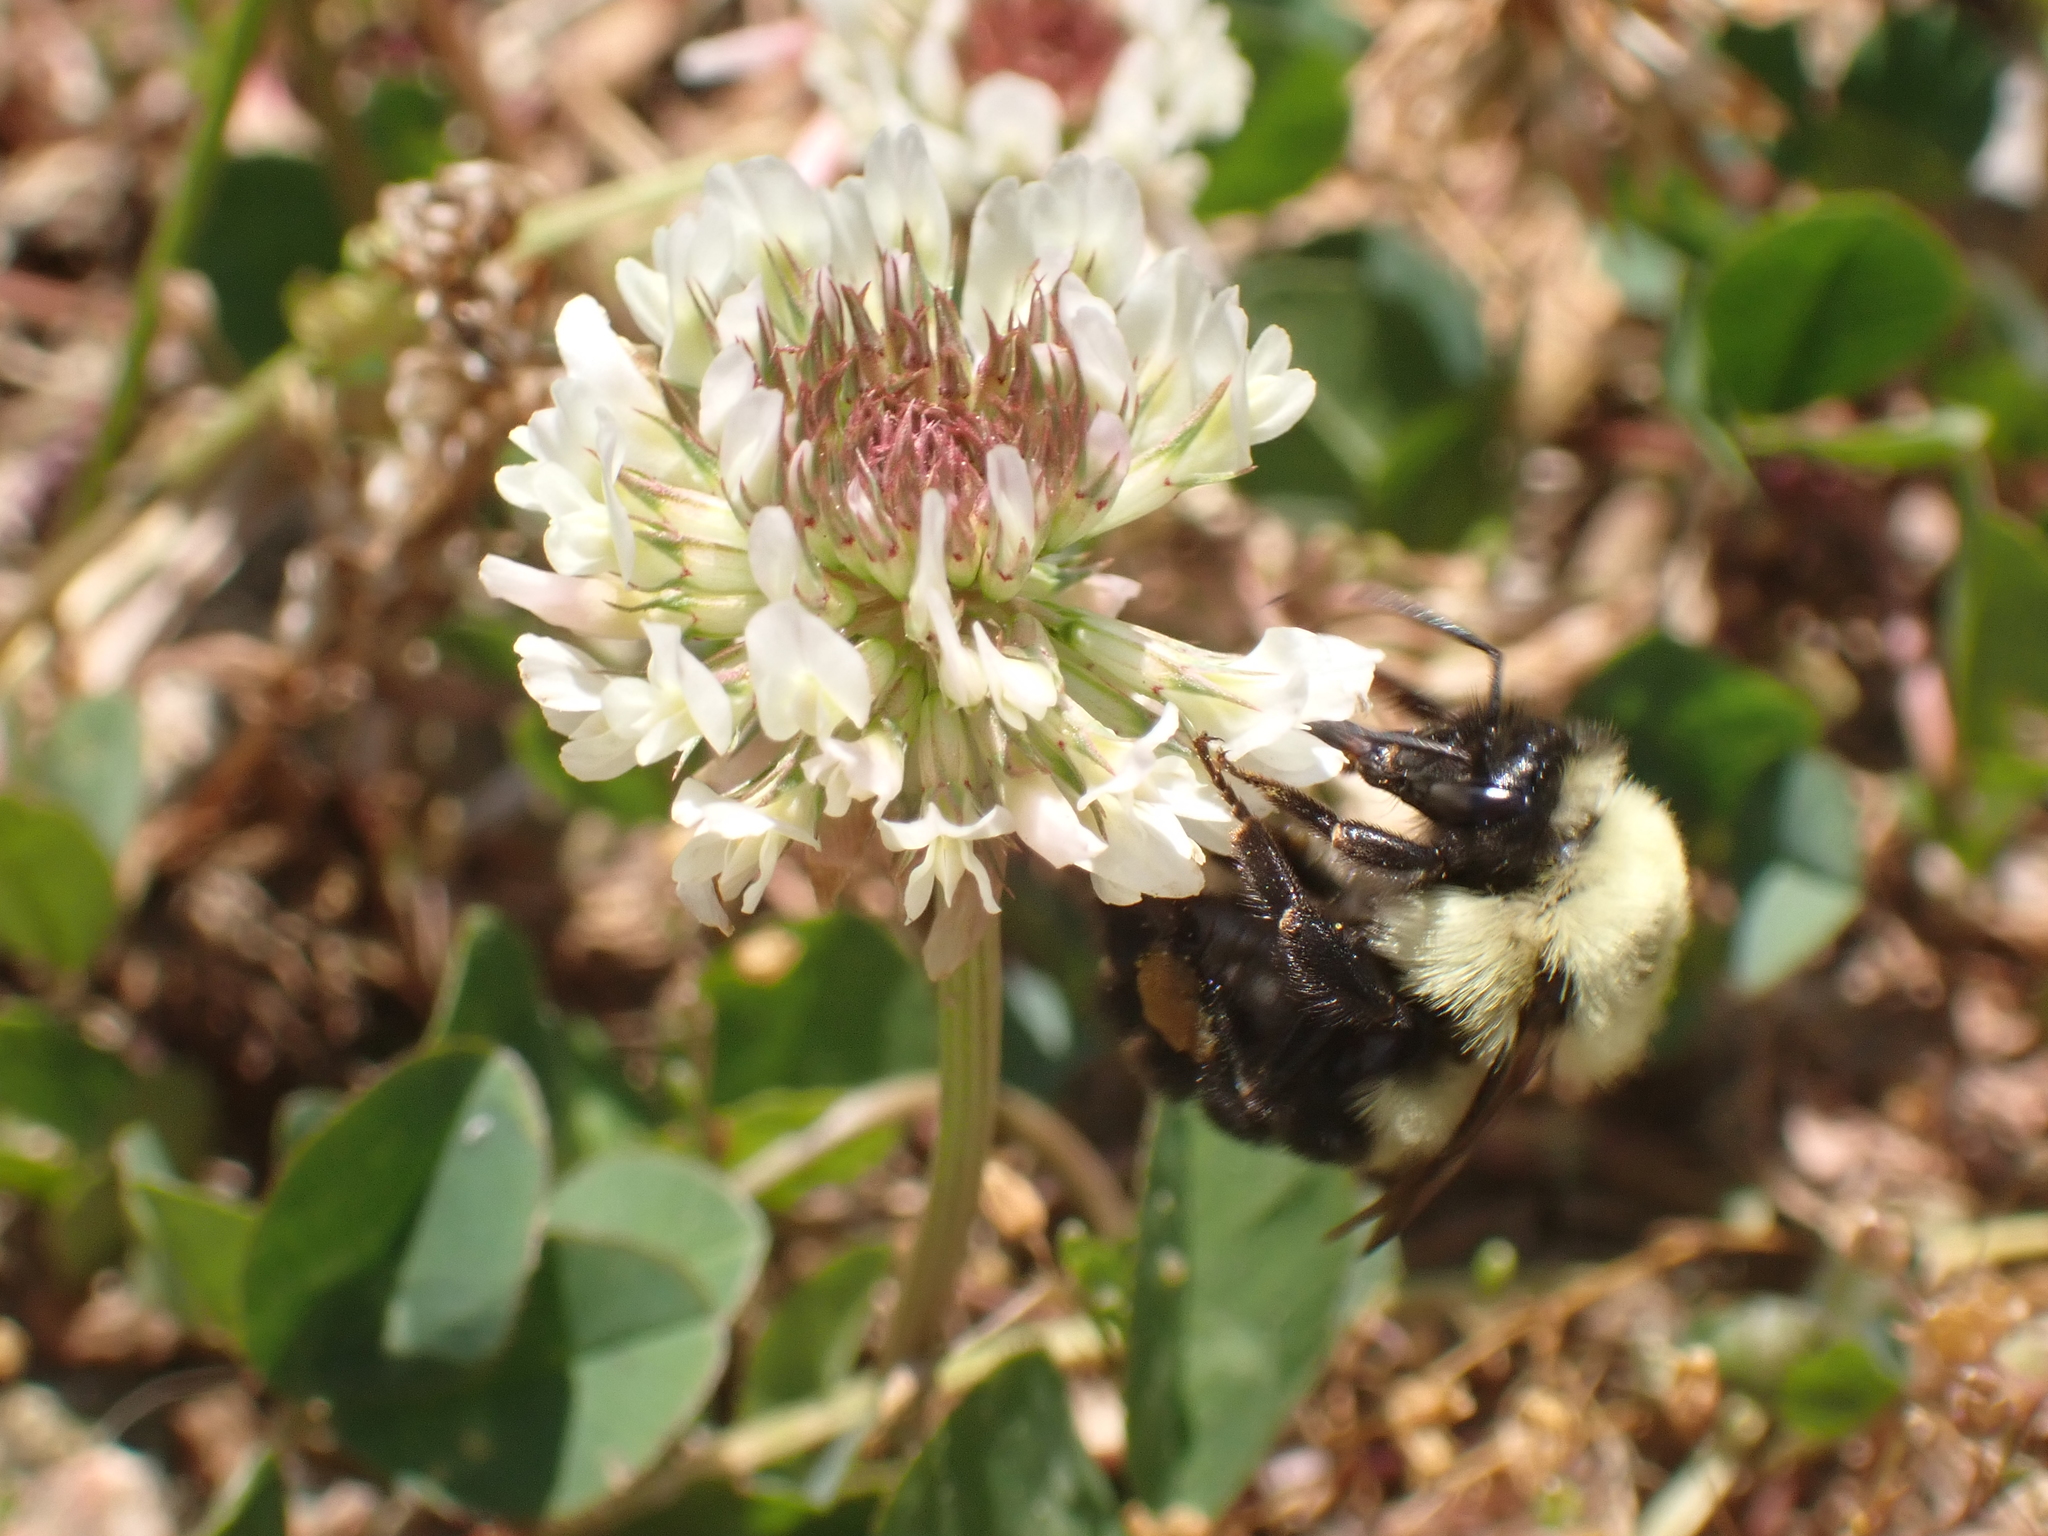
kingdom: Animalia
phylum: Arthropoda
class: Insecta
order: Hymenoptera
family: Apidae
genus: Bombus
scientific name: Bombus bimaculatus
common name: Two-spotted bumble bee
